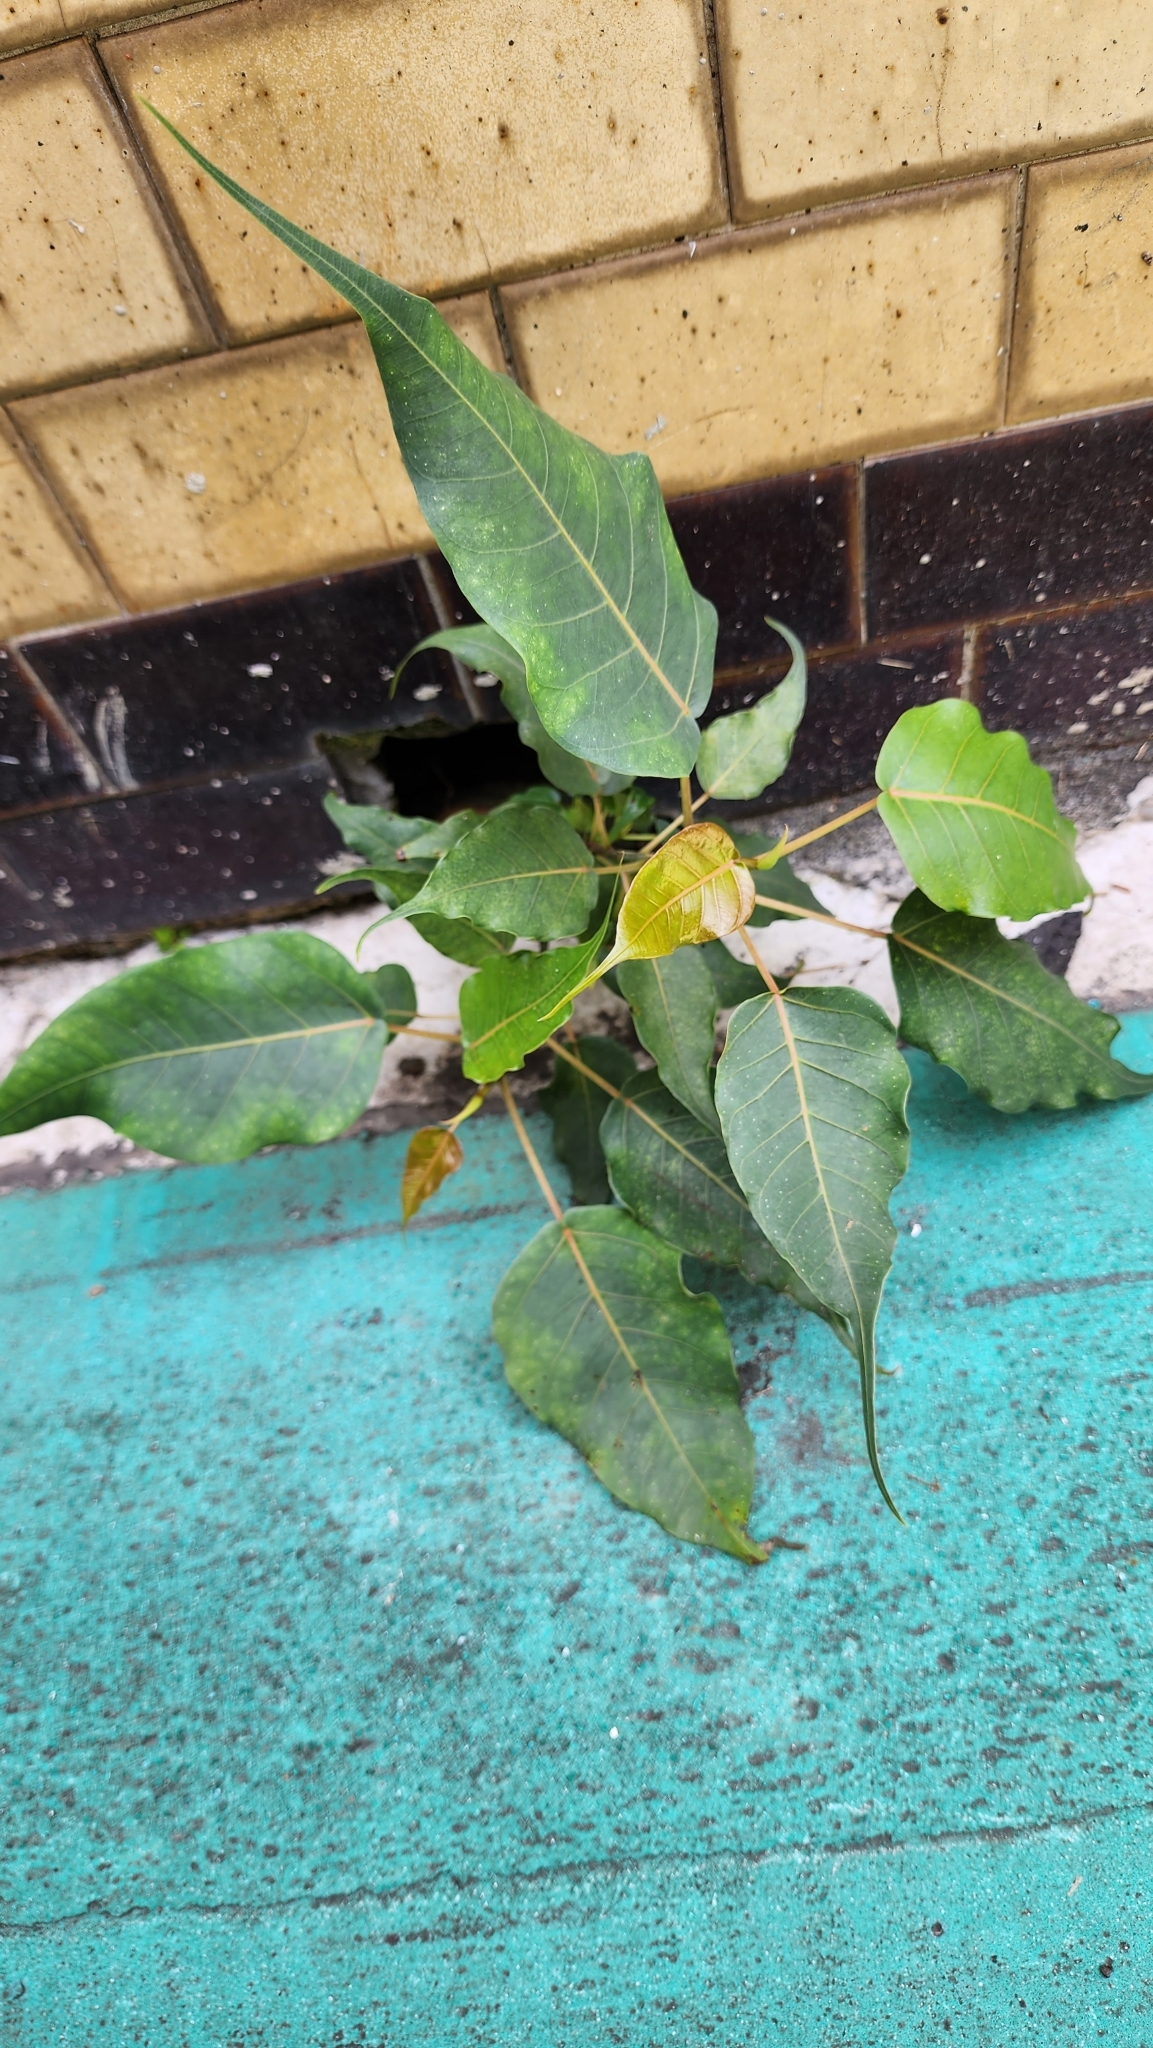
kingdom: Plantae
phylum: Tracheophyta
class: Magnoliopsida
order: Rosales
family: Moraceae
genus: Ficus
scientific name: Ficus religiosa
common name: Bodhi tree
